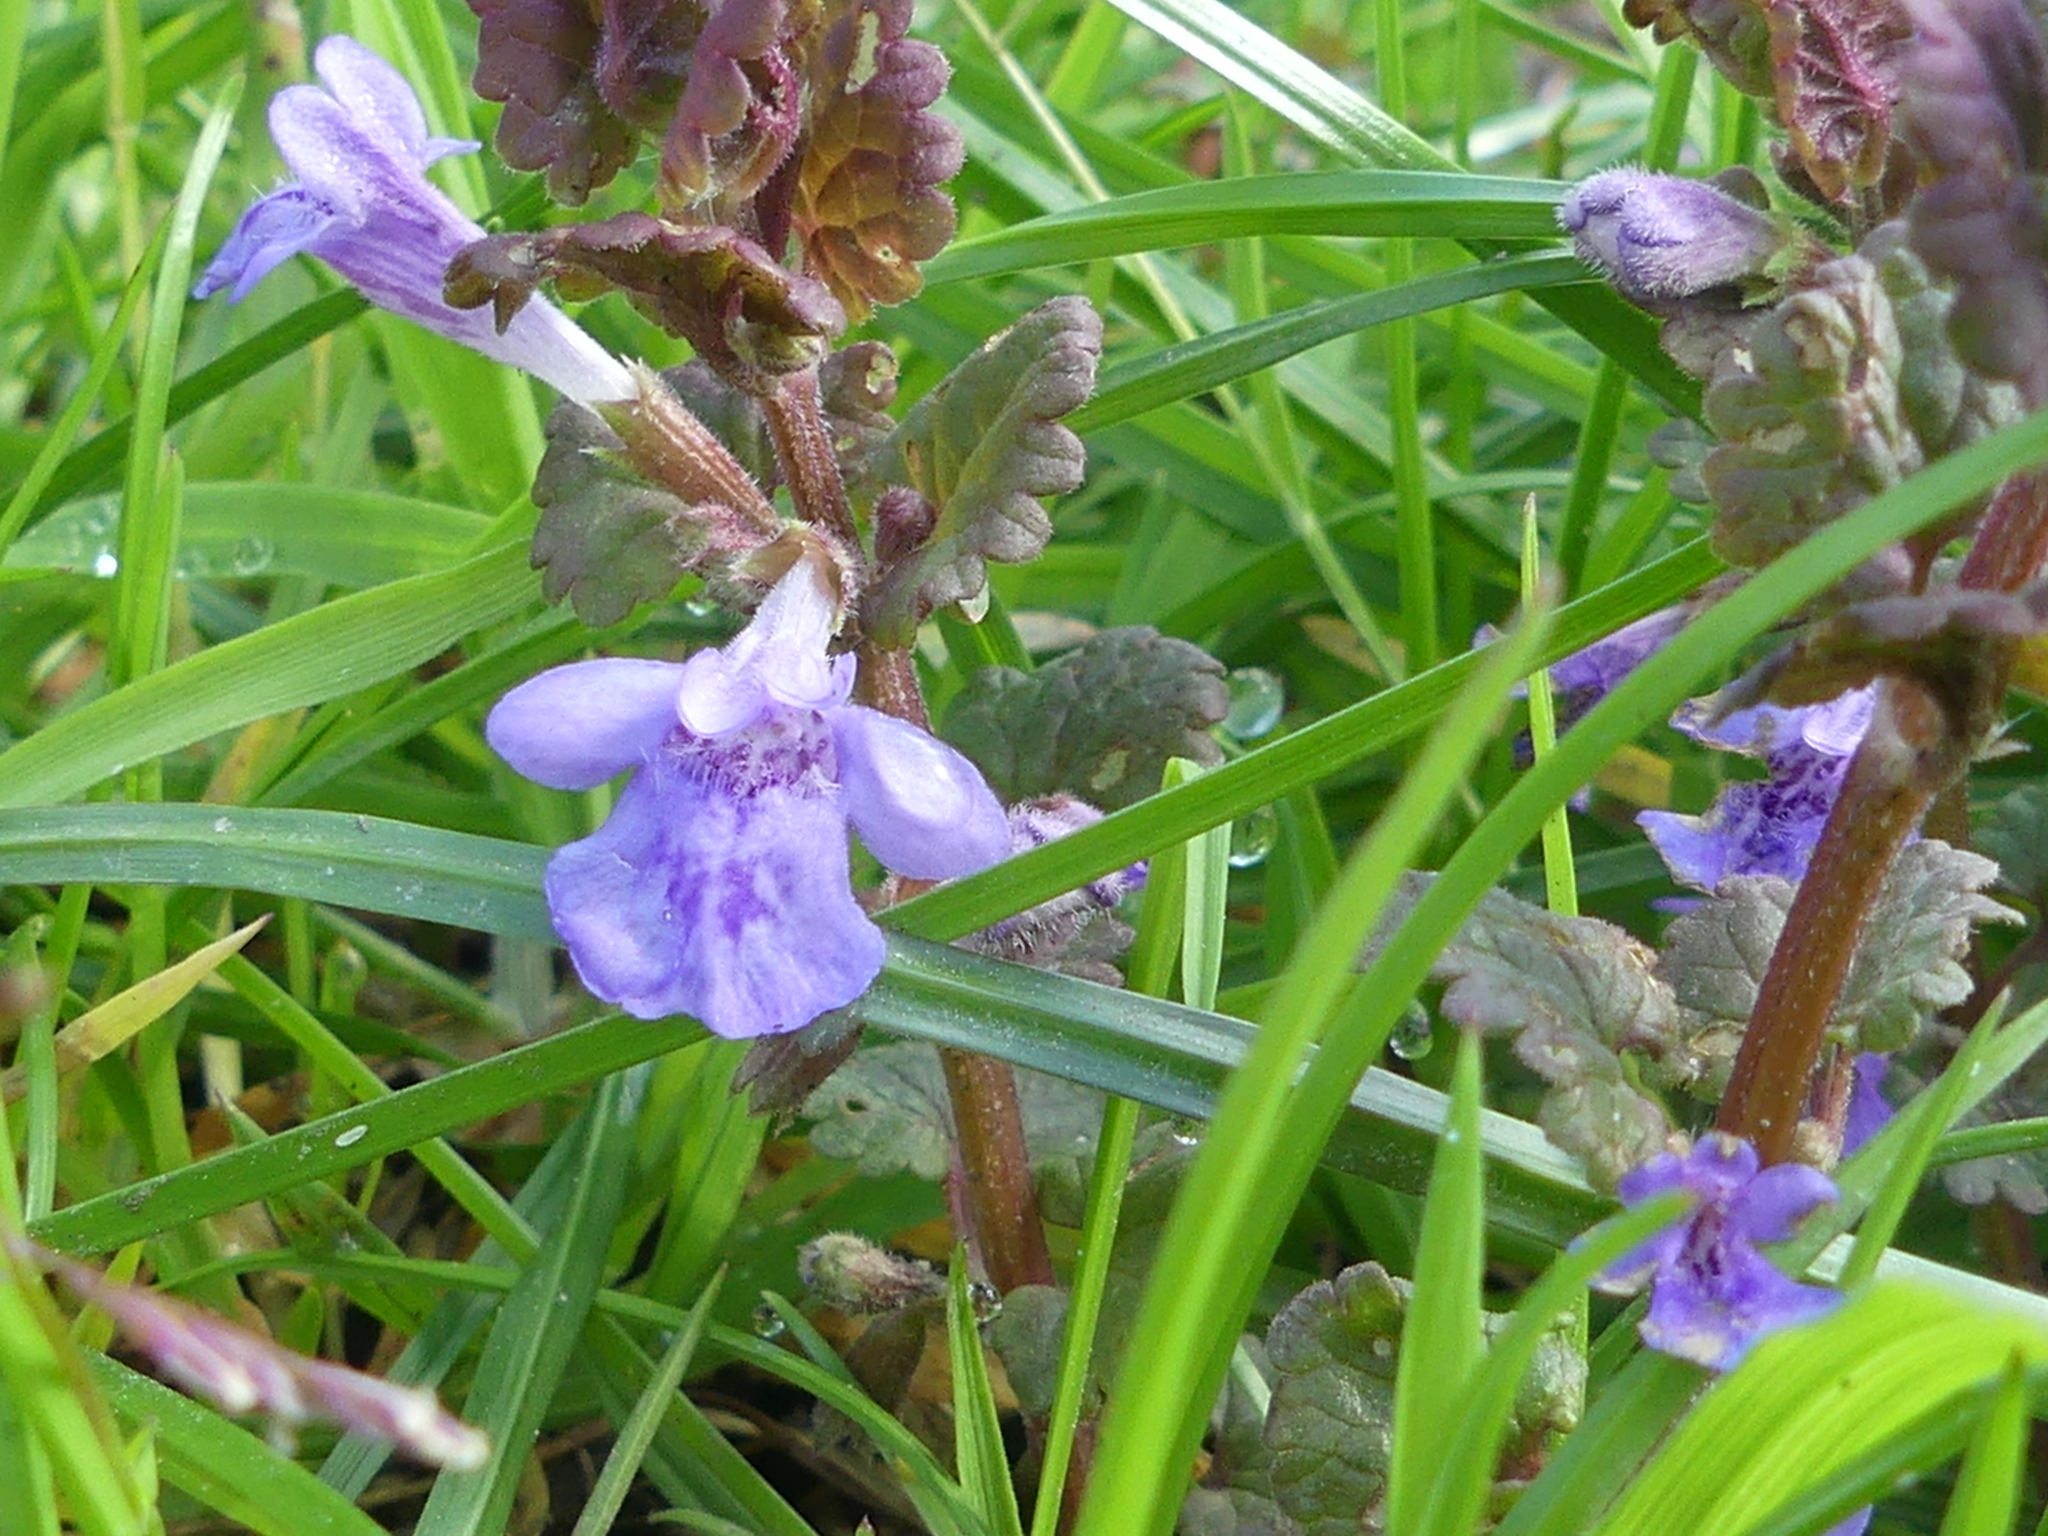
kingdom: Plantae
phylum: Tracheophyta
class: Magnoliopsida
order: Lamiales
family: Lamiaceae
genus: Glechoma
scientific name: Glechoma hederacea
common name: Ground ivy
